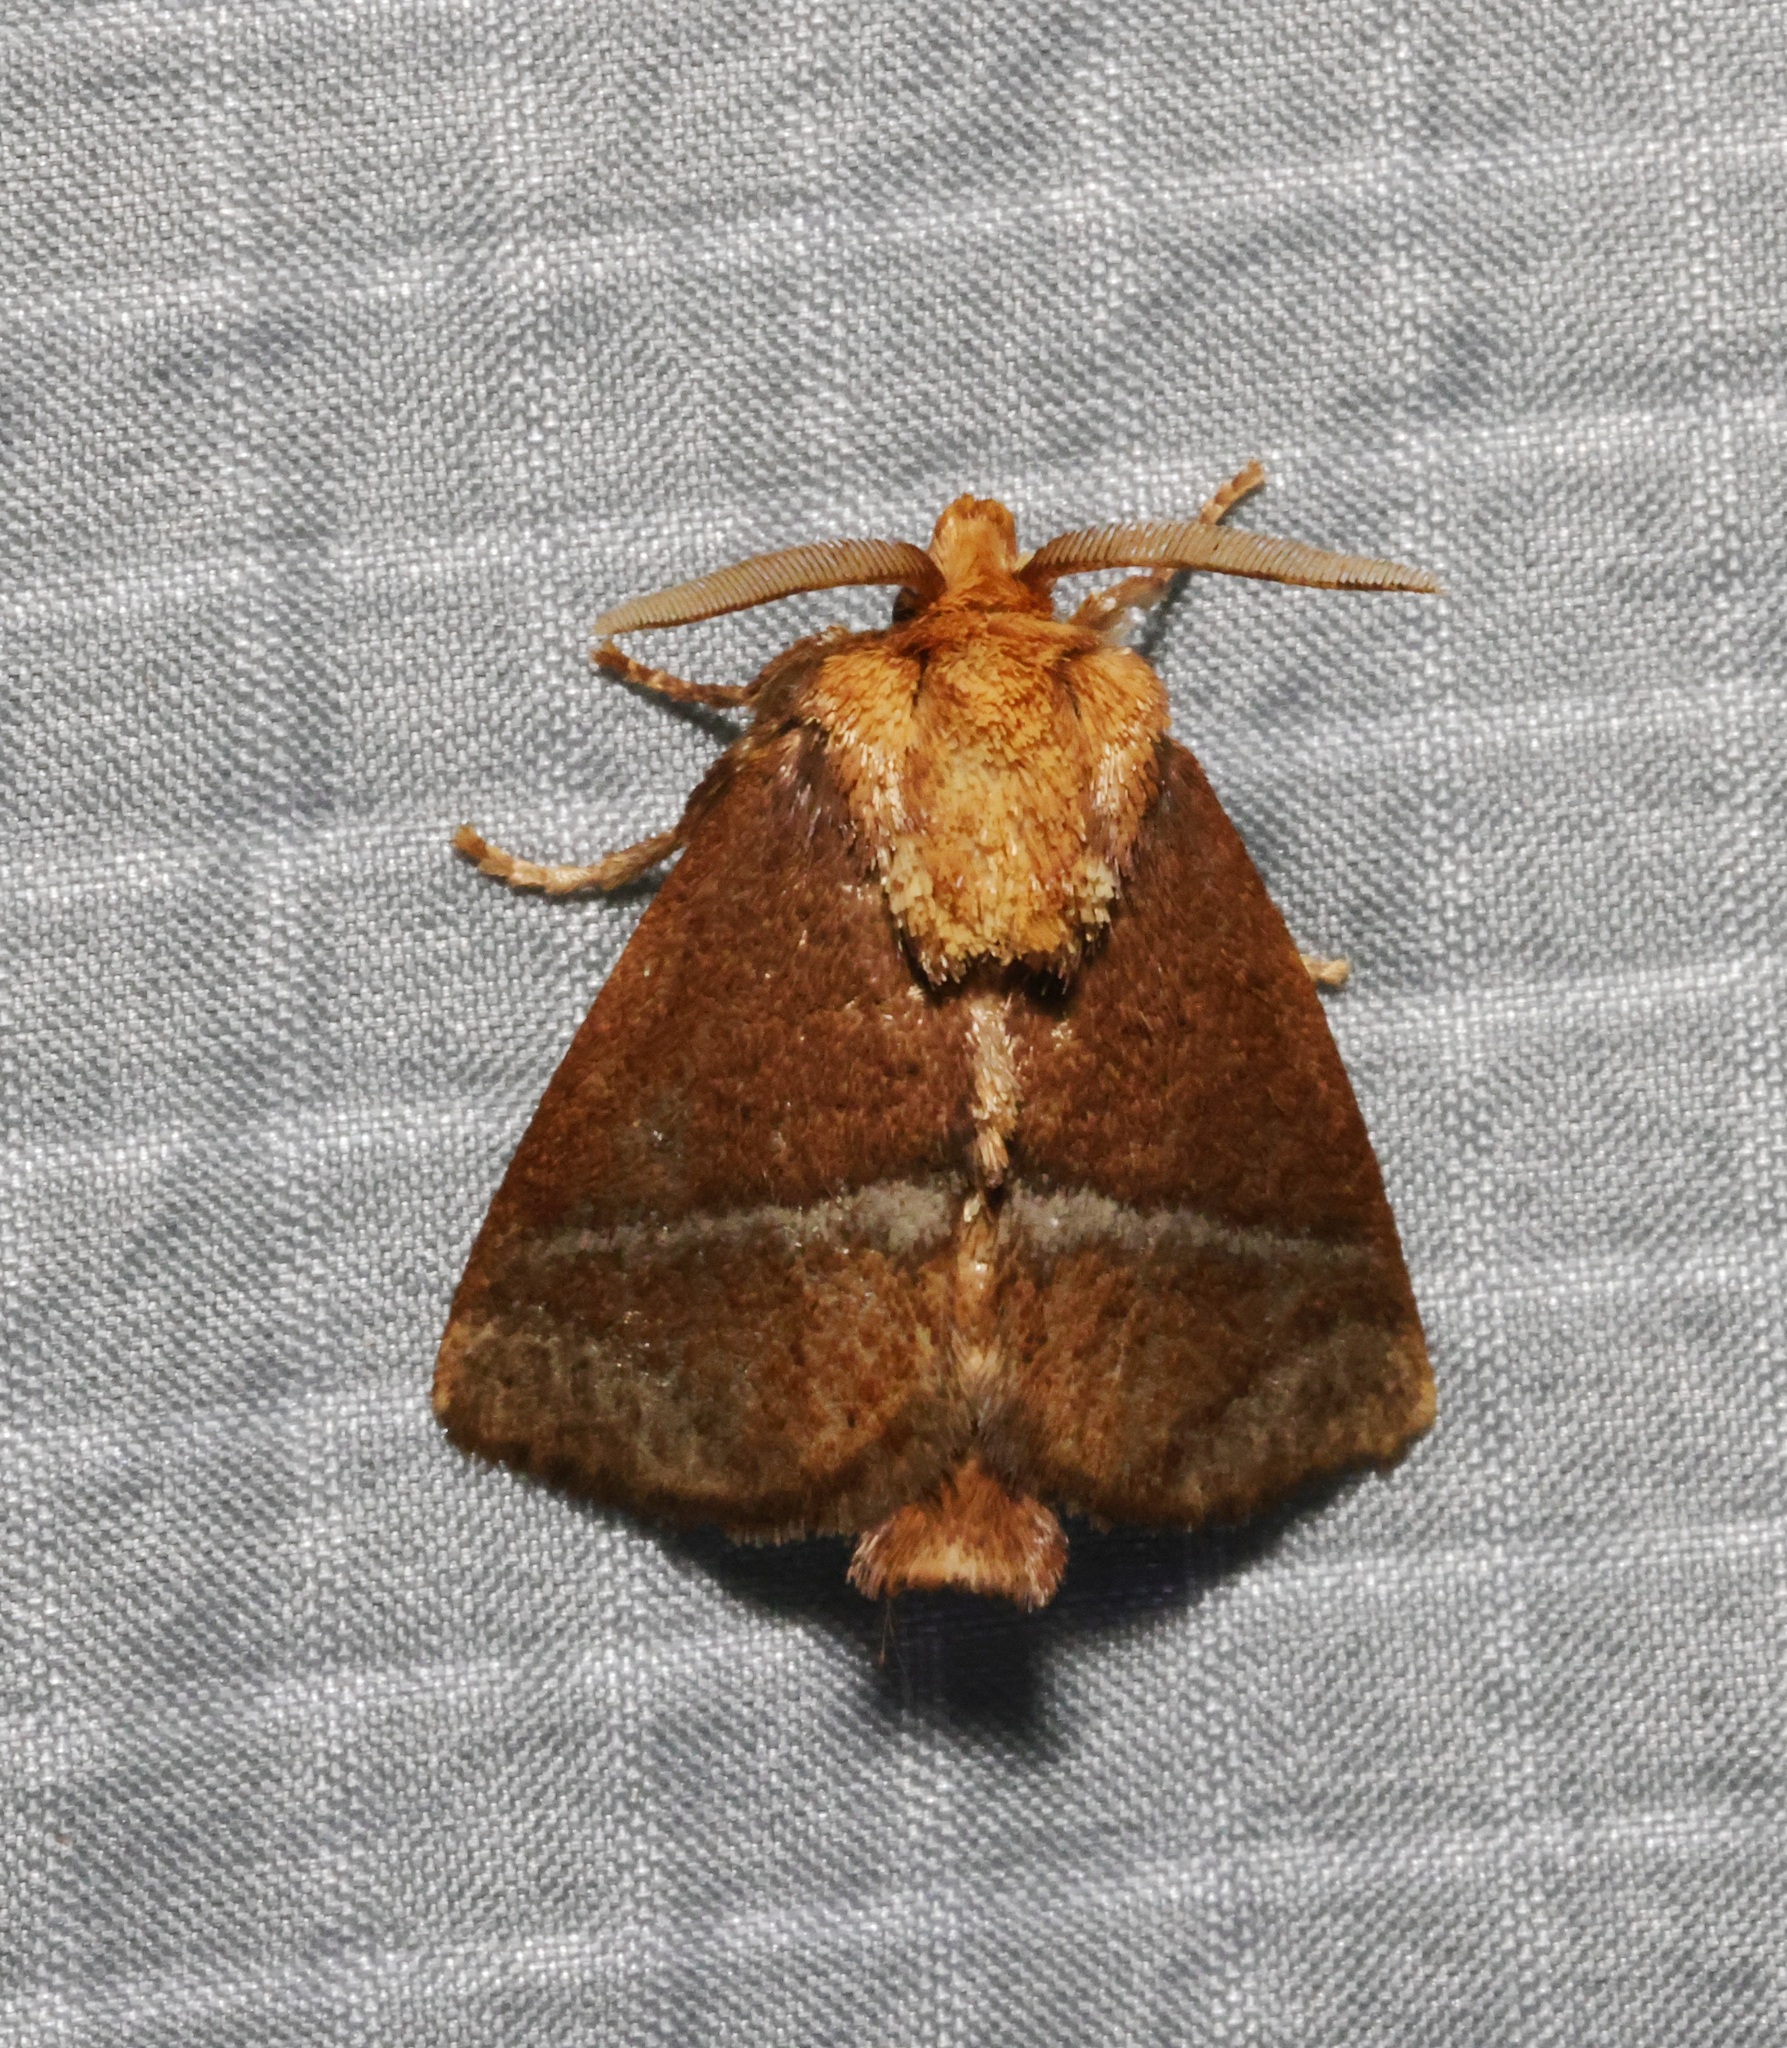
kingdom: Animalia
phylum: Arthropoda
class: Insecta
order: Lepidoptera
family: Limacodidae
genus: Birthamula
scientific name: Birthamula rufa
